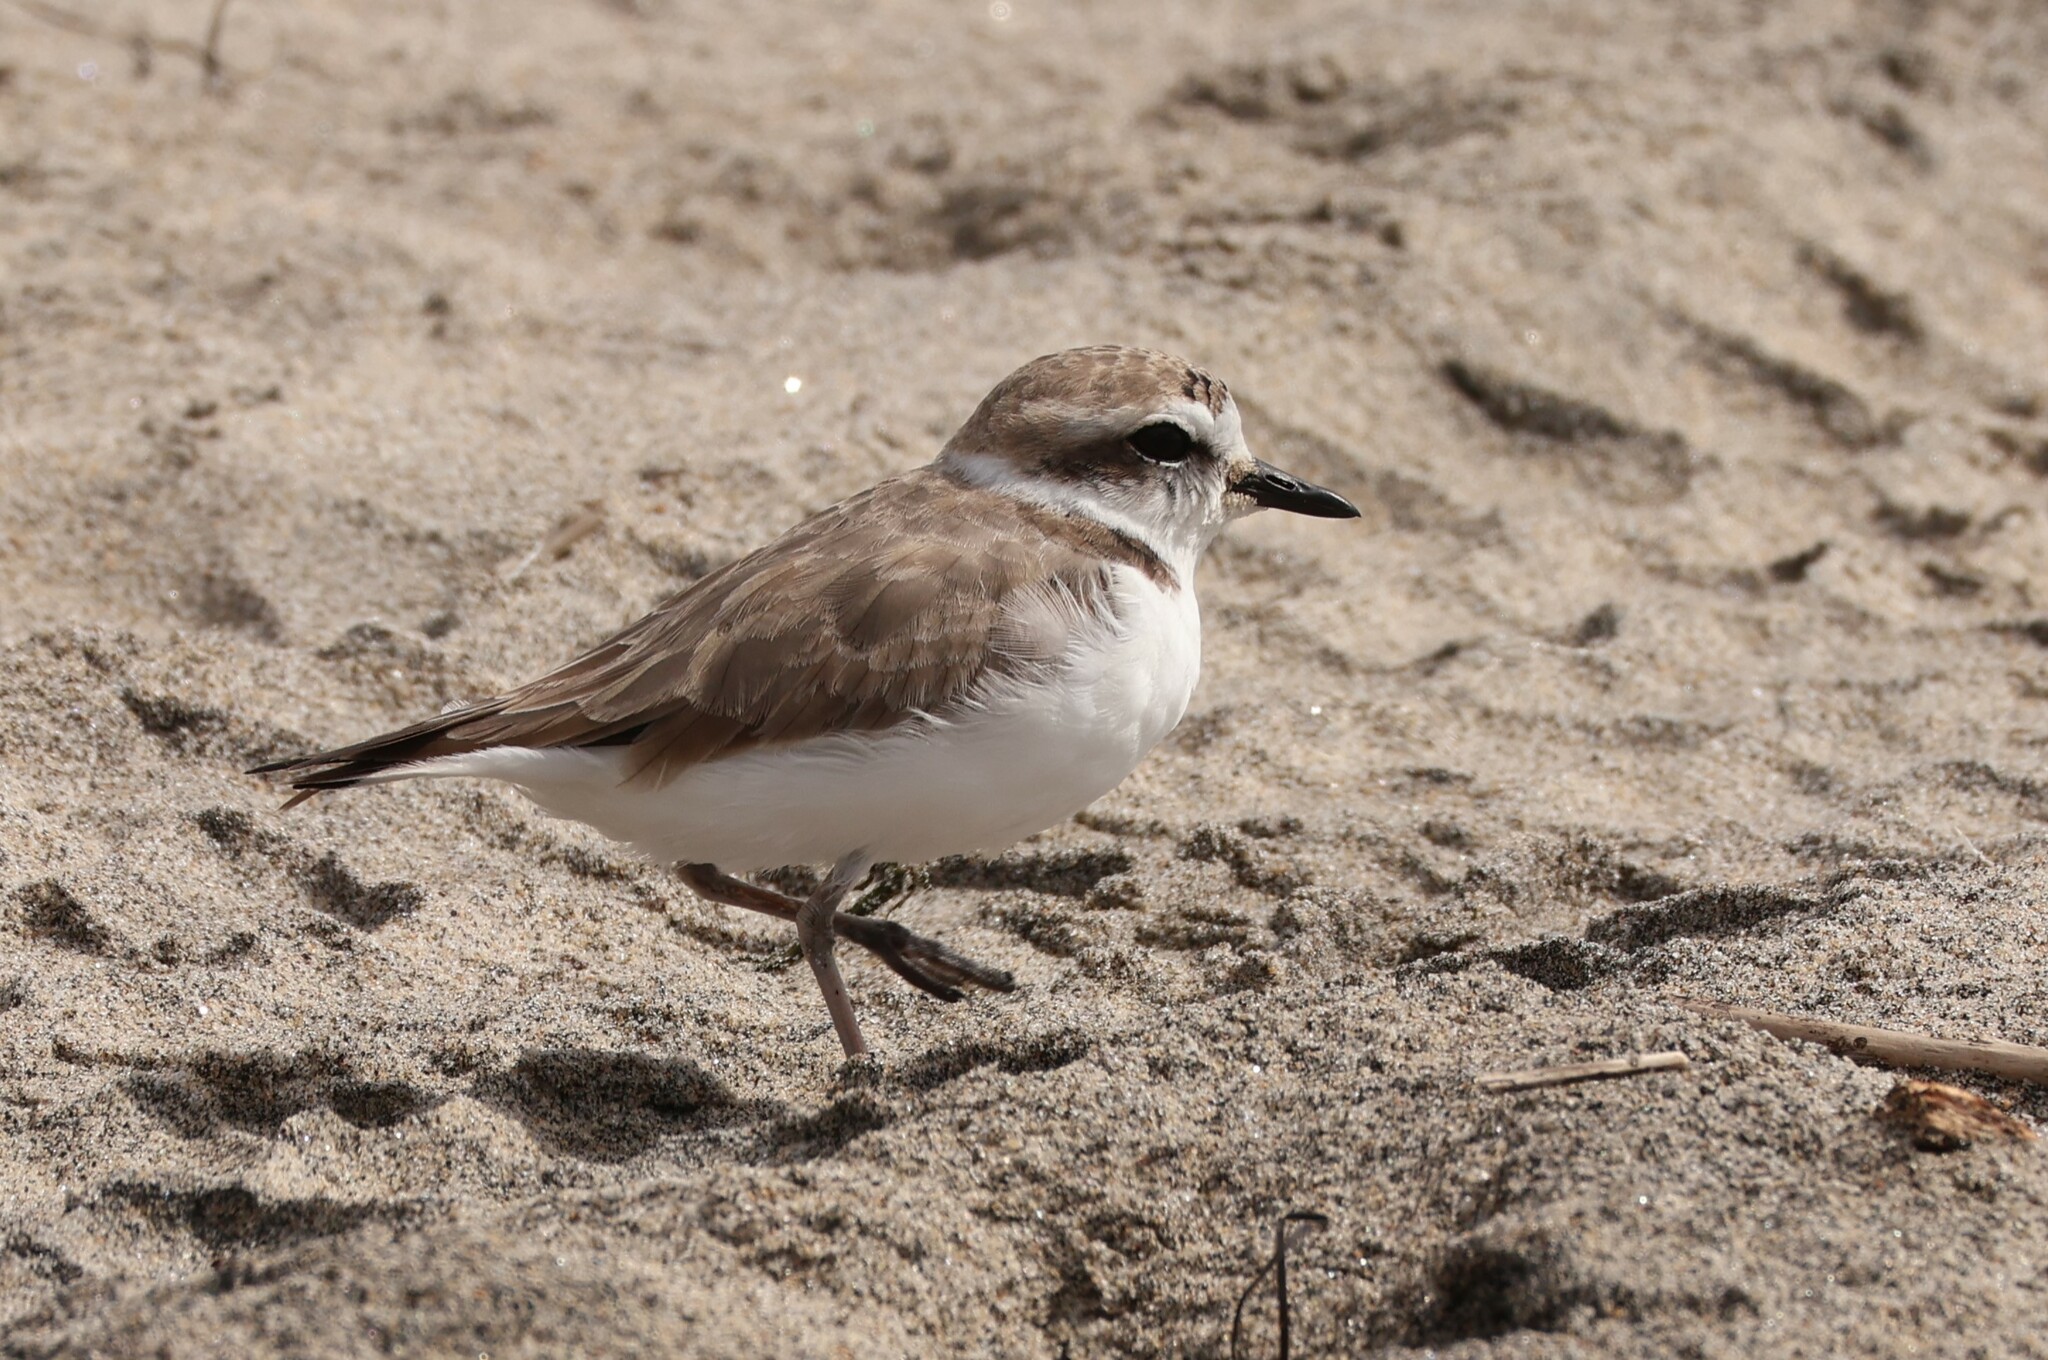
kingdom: Animalia
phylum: Chordata
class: Aves
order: Charadriiformes
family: Charadriidae
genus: Anarhynchus
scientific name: Anarhynchus
